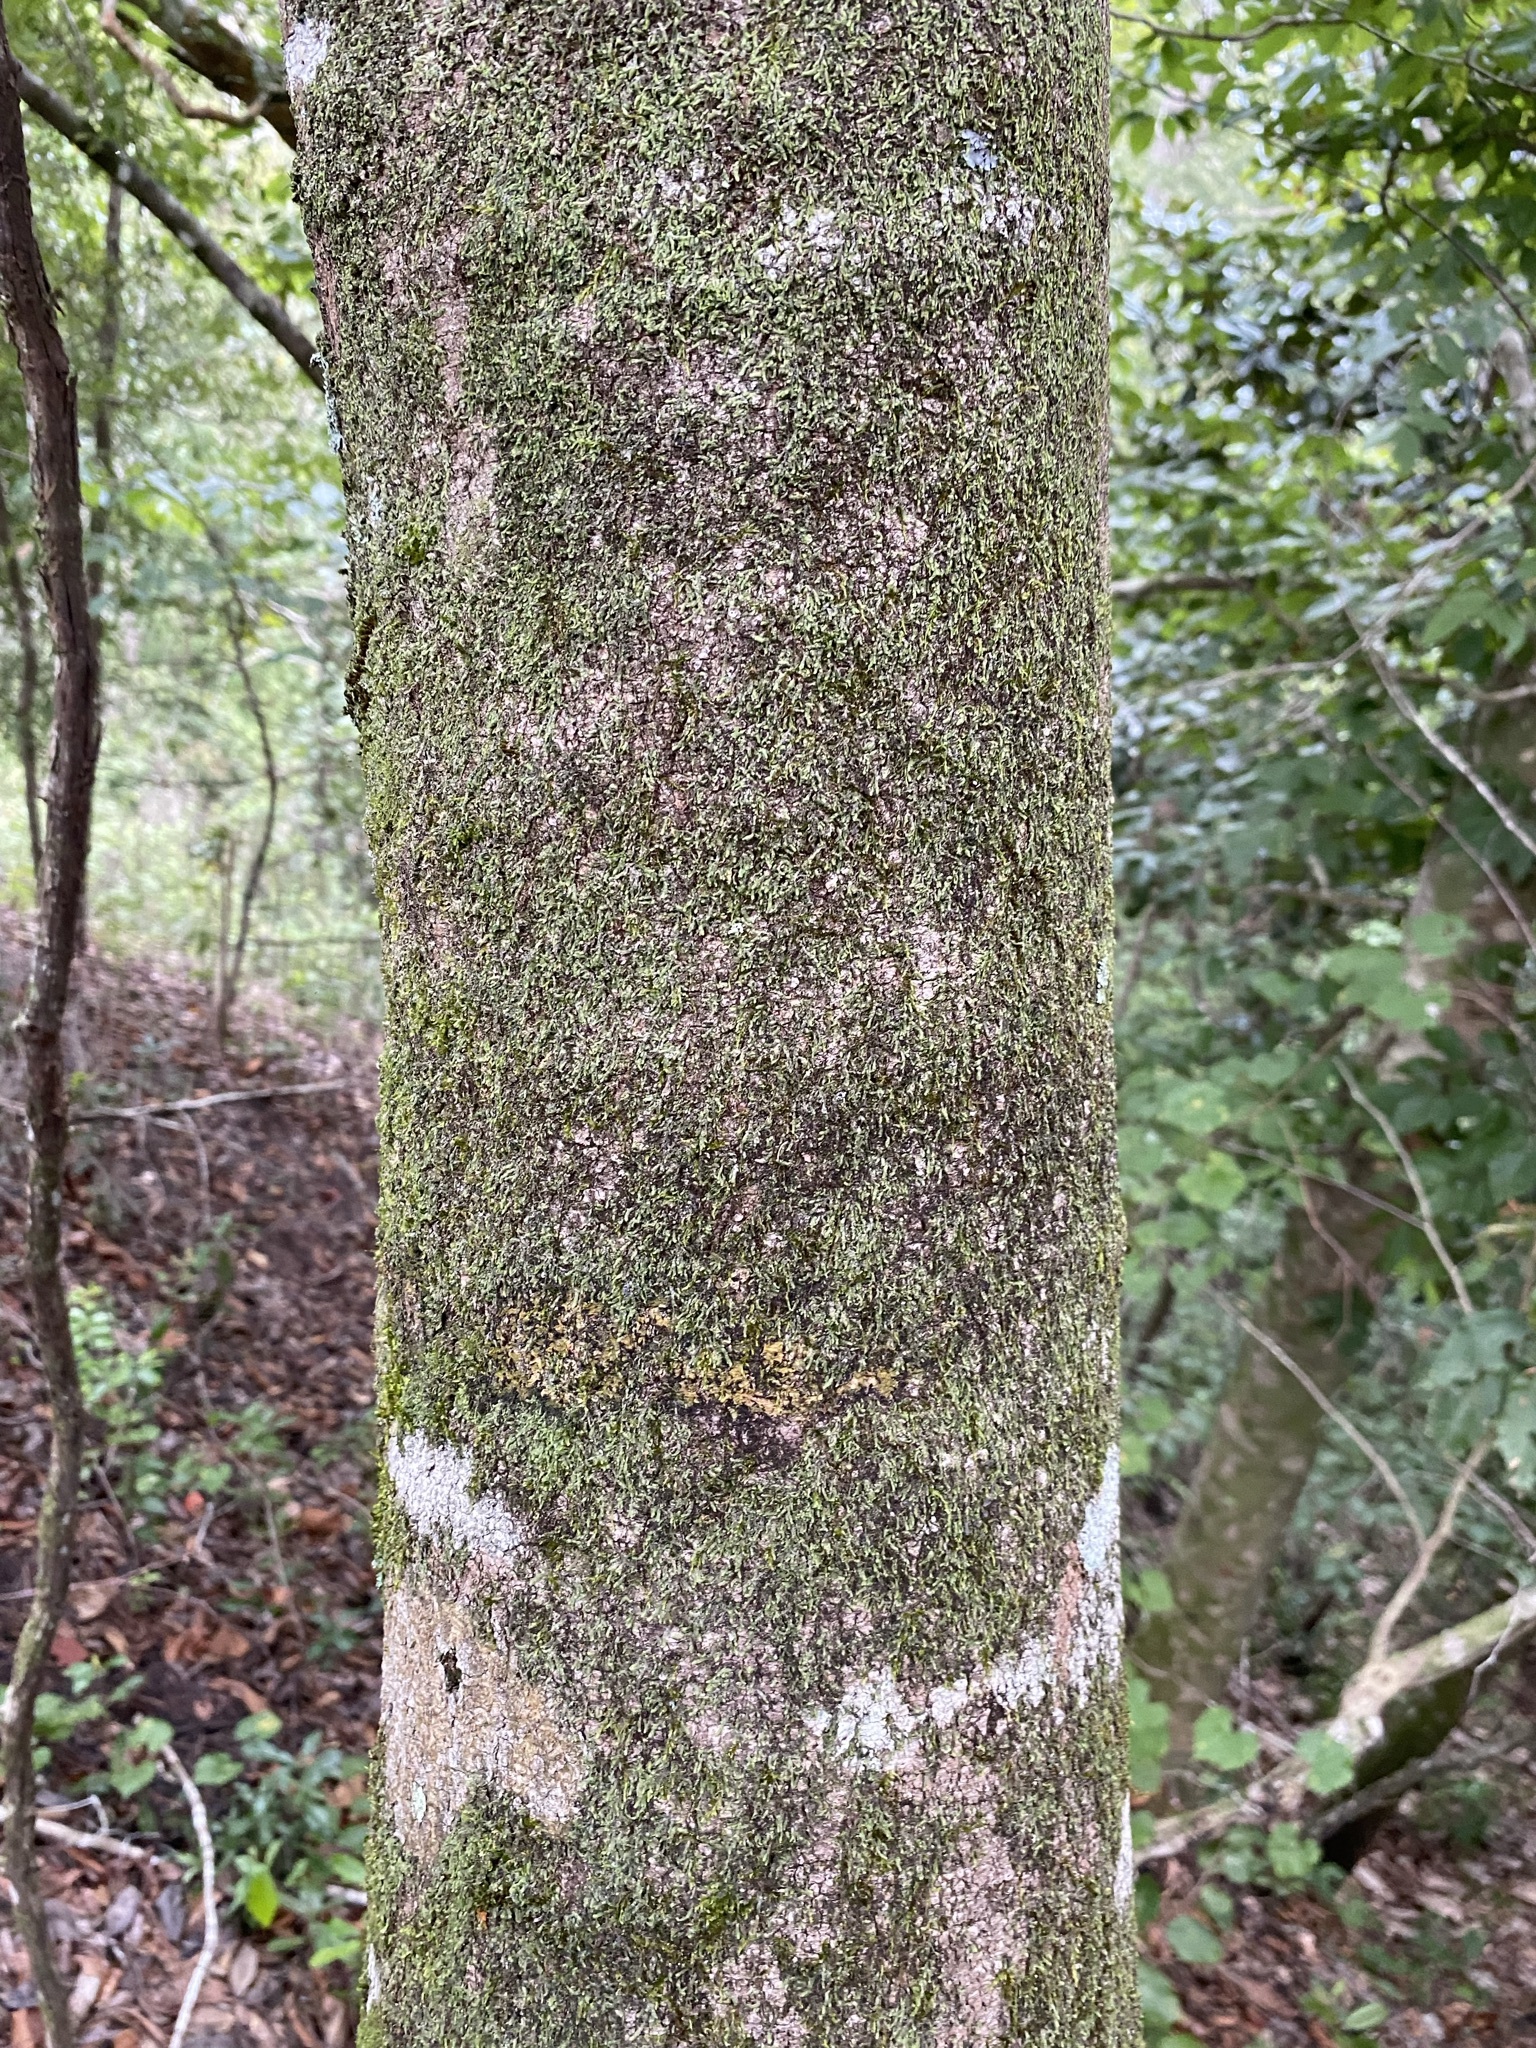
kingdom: Plantae
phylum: Tracheophyta
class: Magnoliopsida
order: Magnoliales
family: Magnoliaceae
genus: Magnolia
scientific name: Magnolia grandiflora
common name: Southern magnolia
